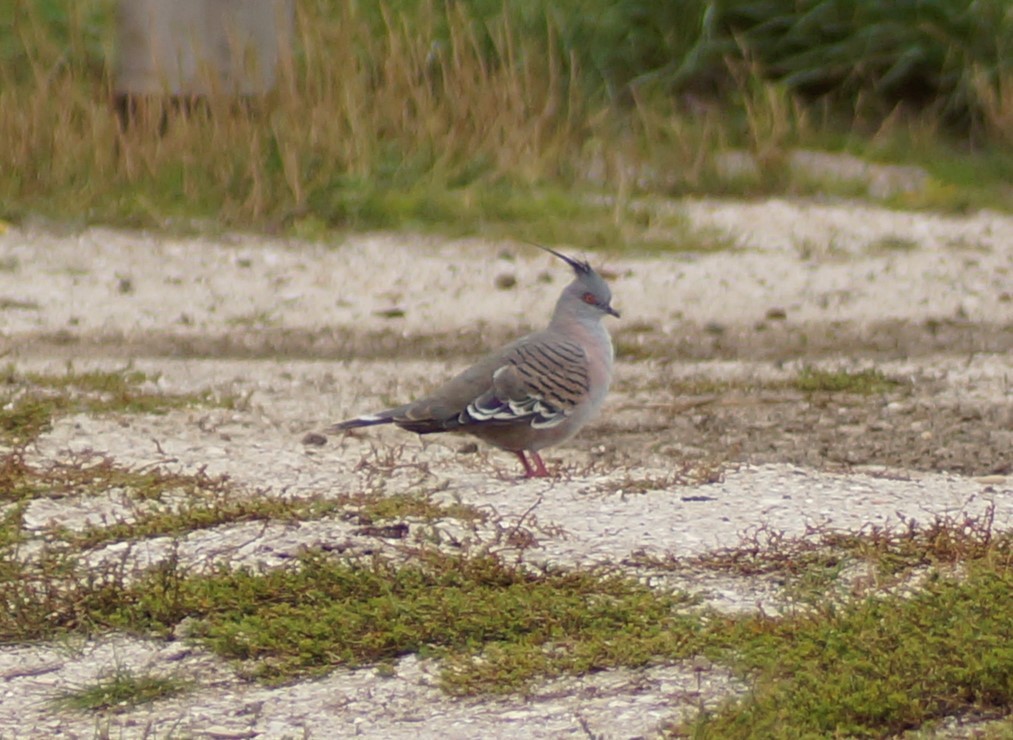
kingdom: Animalia
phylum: Chordata
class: Aves
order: Columbiformes
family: Columbidae
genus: Ocyphaps
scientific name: Ocyphaps lophotes
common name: Crested pigeon
